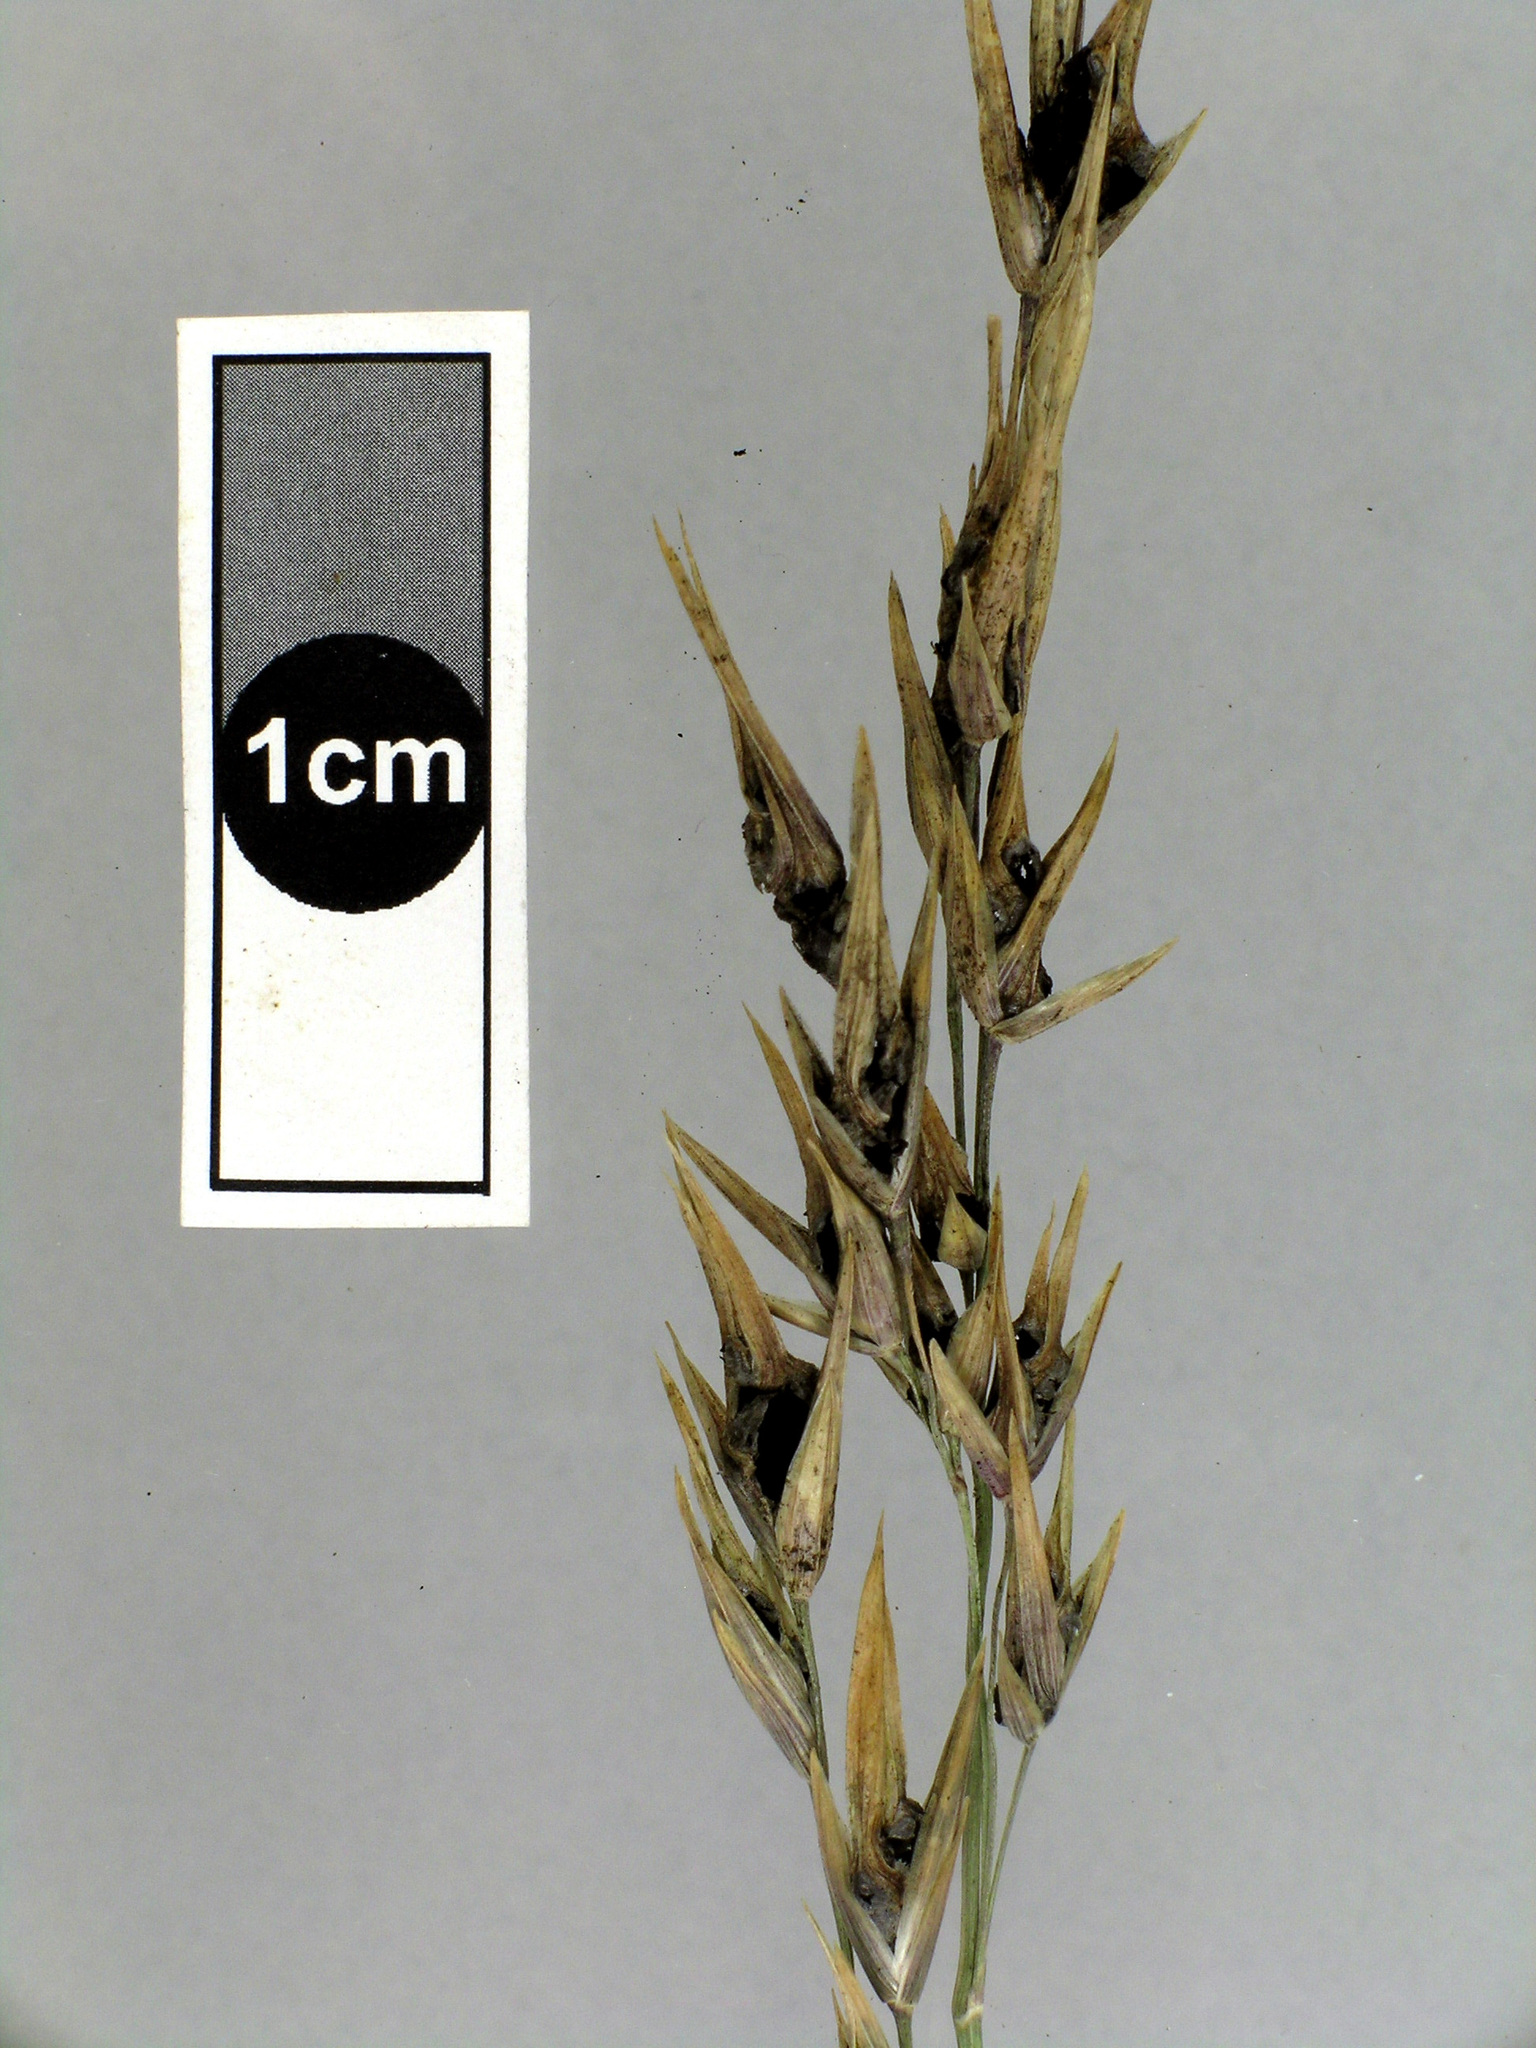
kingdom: Fungi
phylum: Basidiomycota
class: Ustilaginomycetes
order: Ustilaginales
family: Ustilaginaceae
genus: Ustilago
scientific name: Ustilago avenae
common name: Loose smut of oats & oat grass
